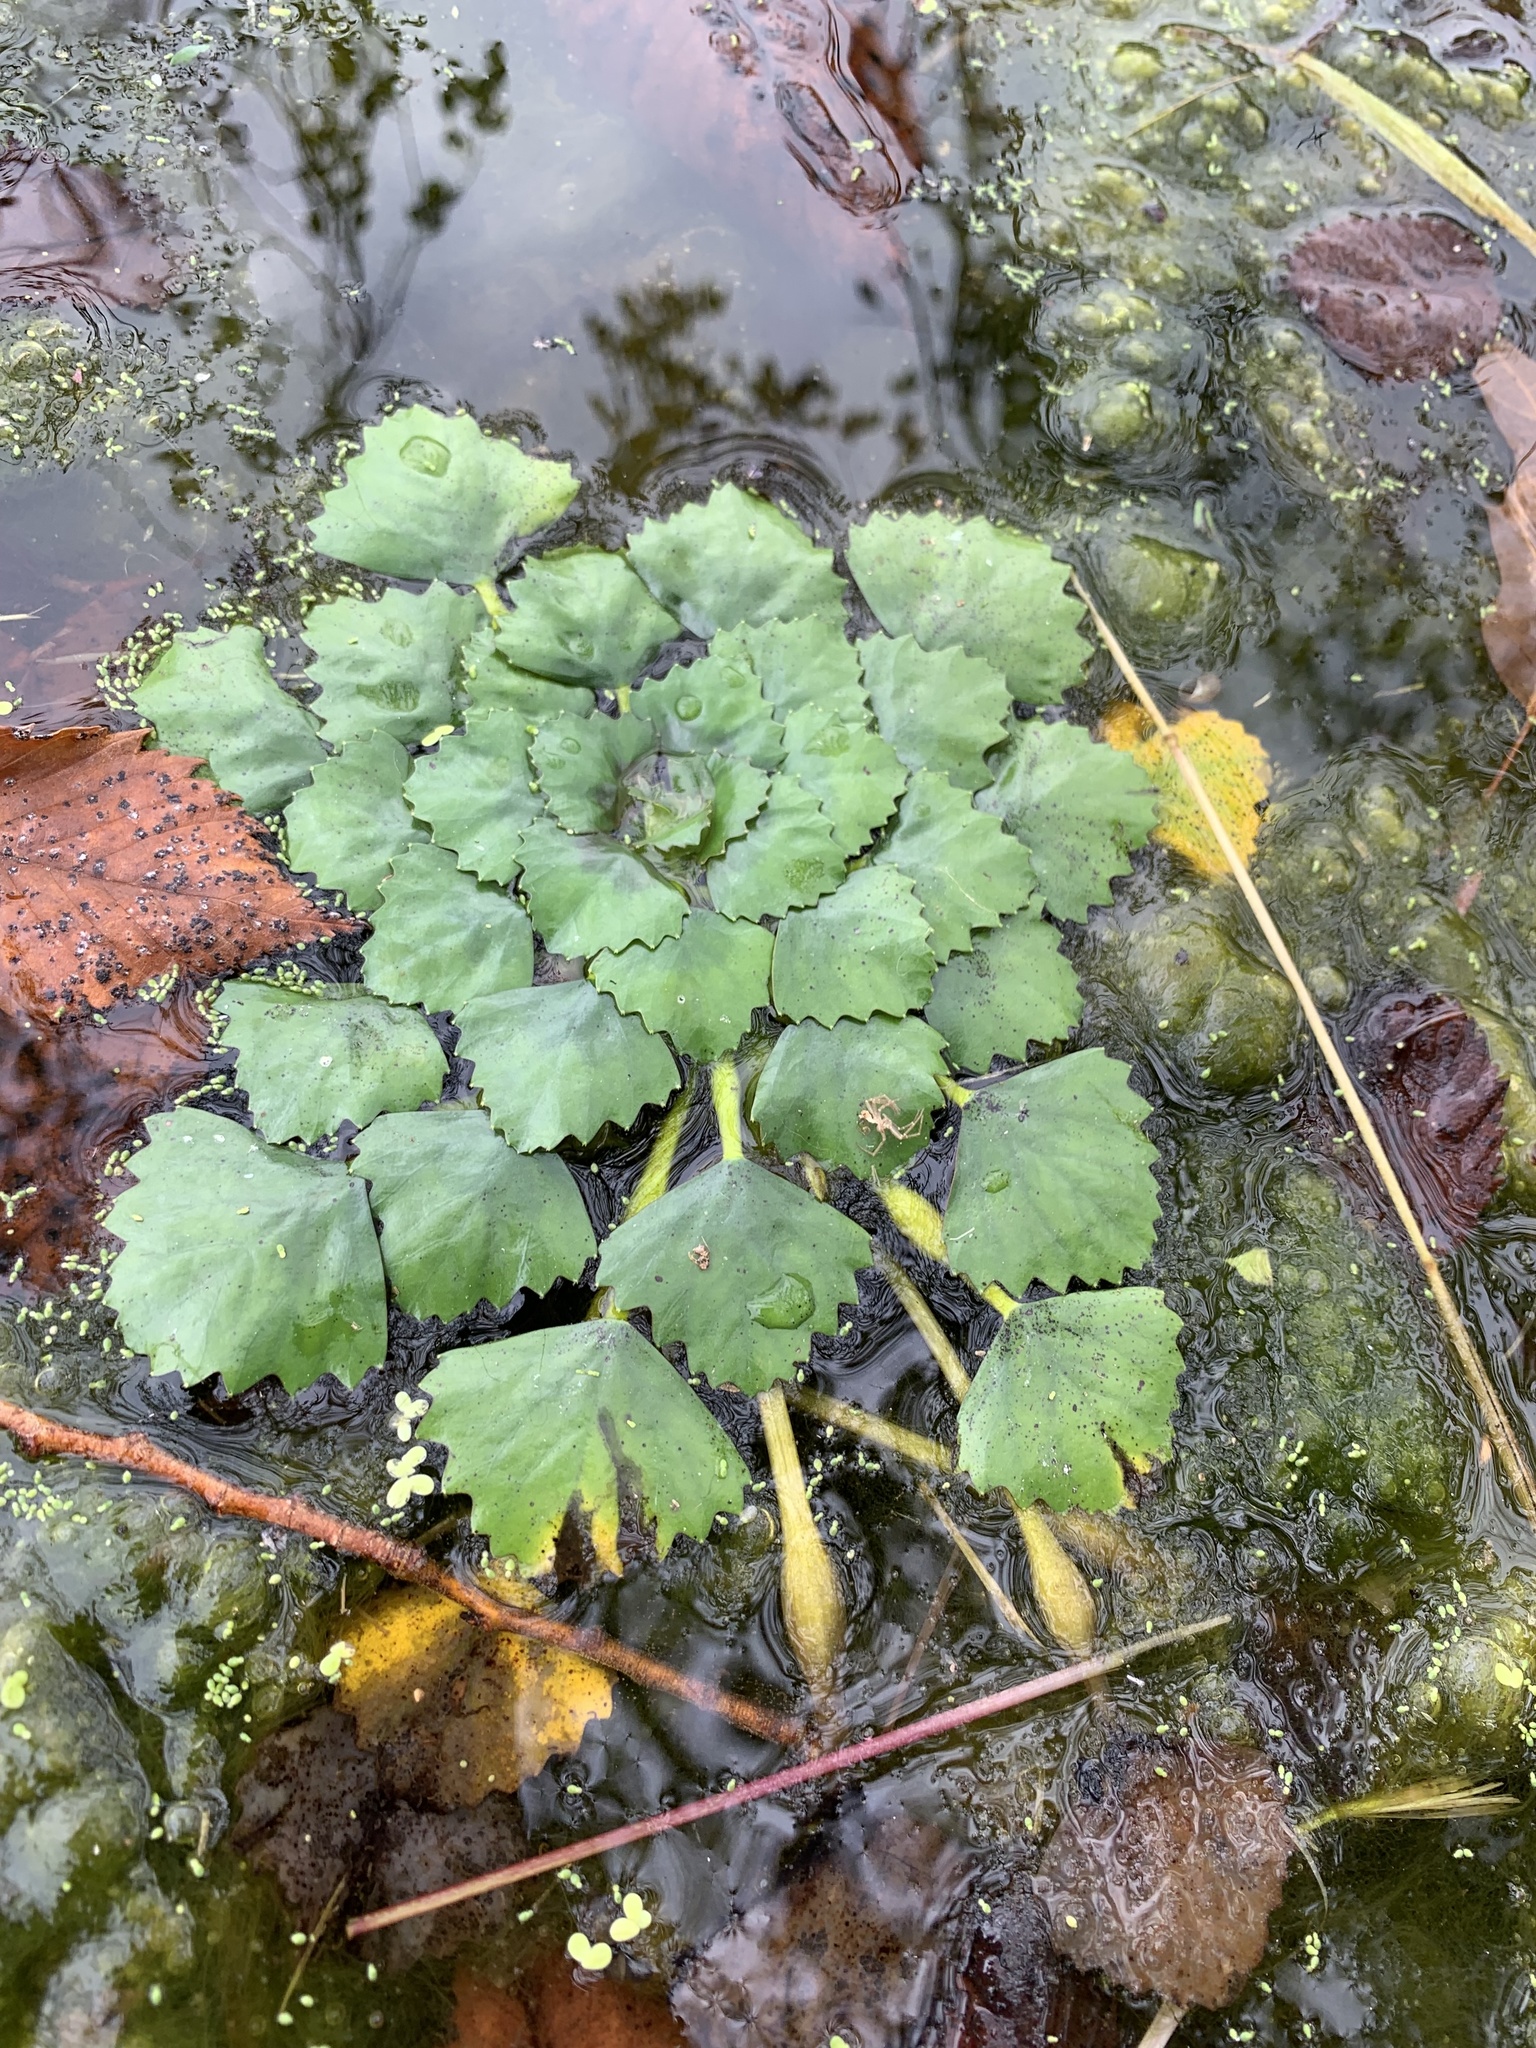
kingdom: Plantae
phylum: Tracheophyta
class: Magnoliopsida
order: Myrtales
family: Lythraceae
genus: Trapa
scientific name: Trapa natans
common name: Water chestnut
